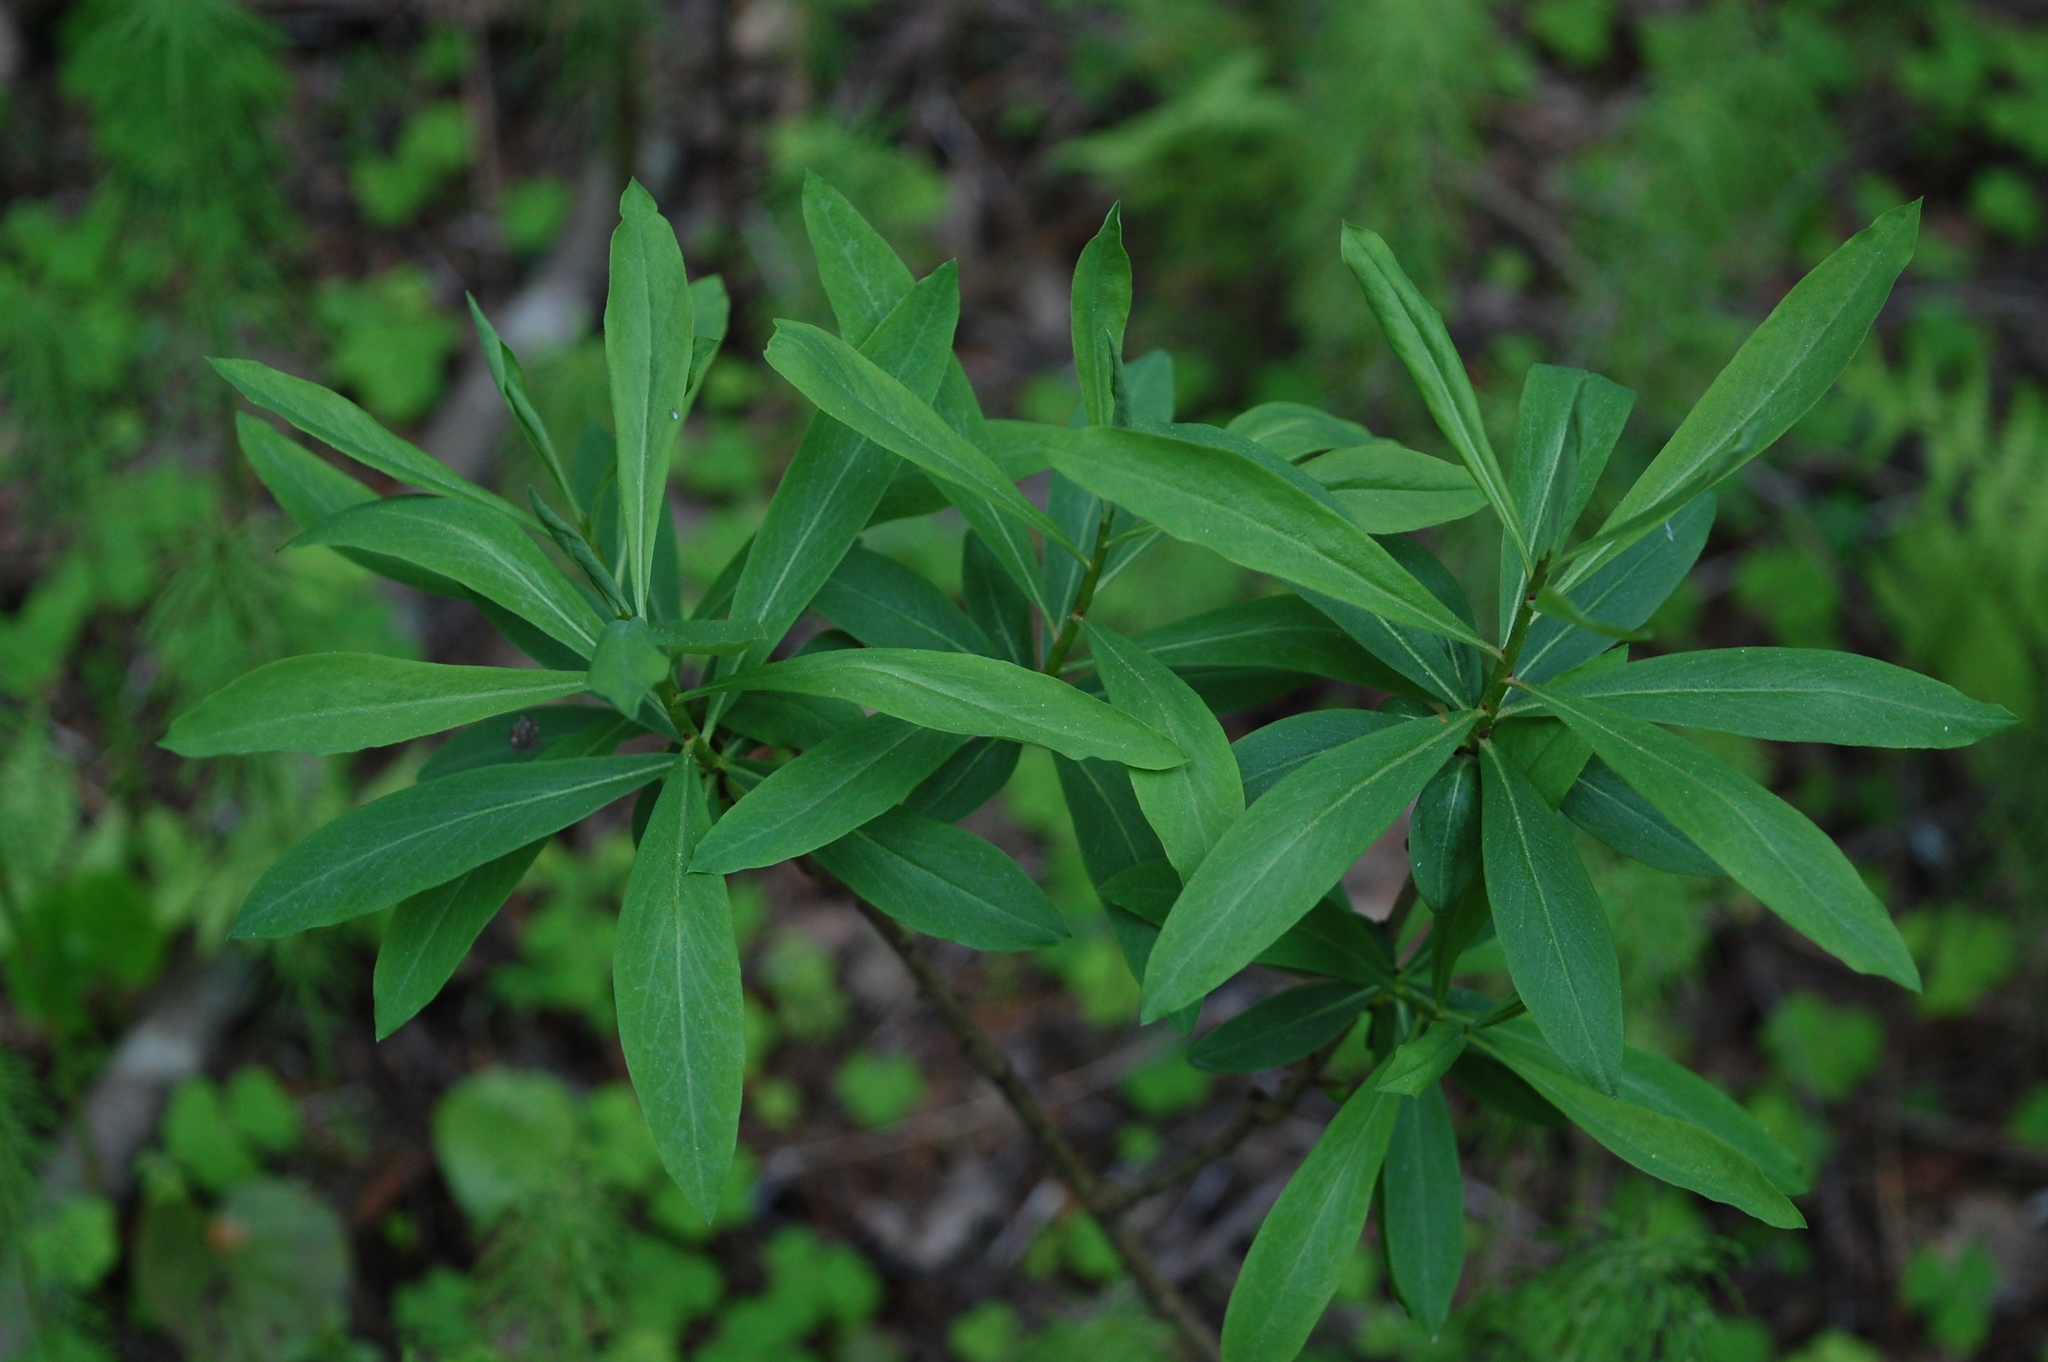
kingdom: Plantae
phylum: Tracheophyta
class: Magnoliopsida
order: Malvales
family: Thymelaeaceae
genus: Daphne
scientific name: Daphne mezereum
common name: Mezereon
